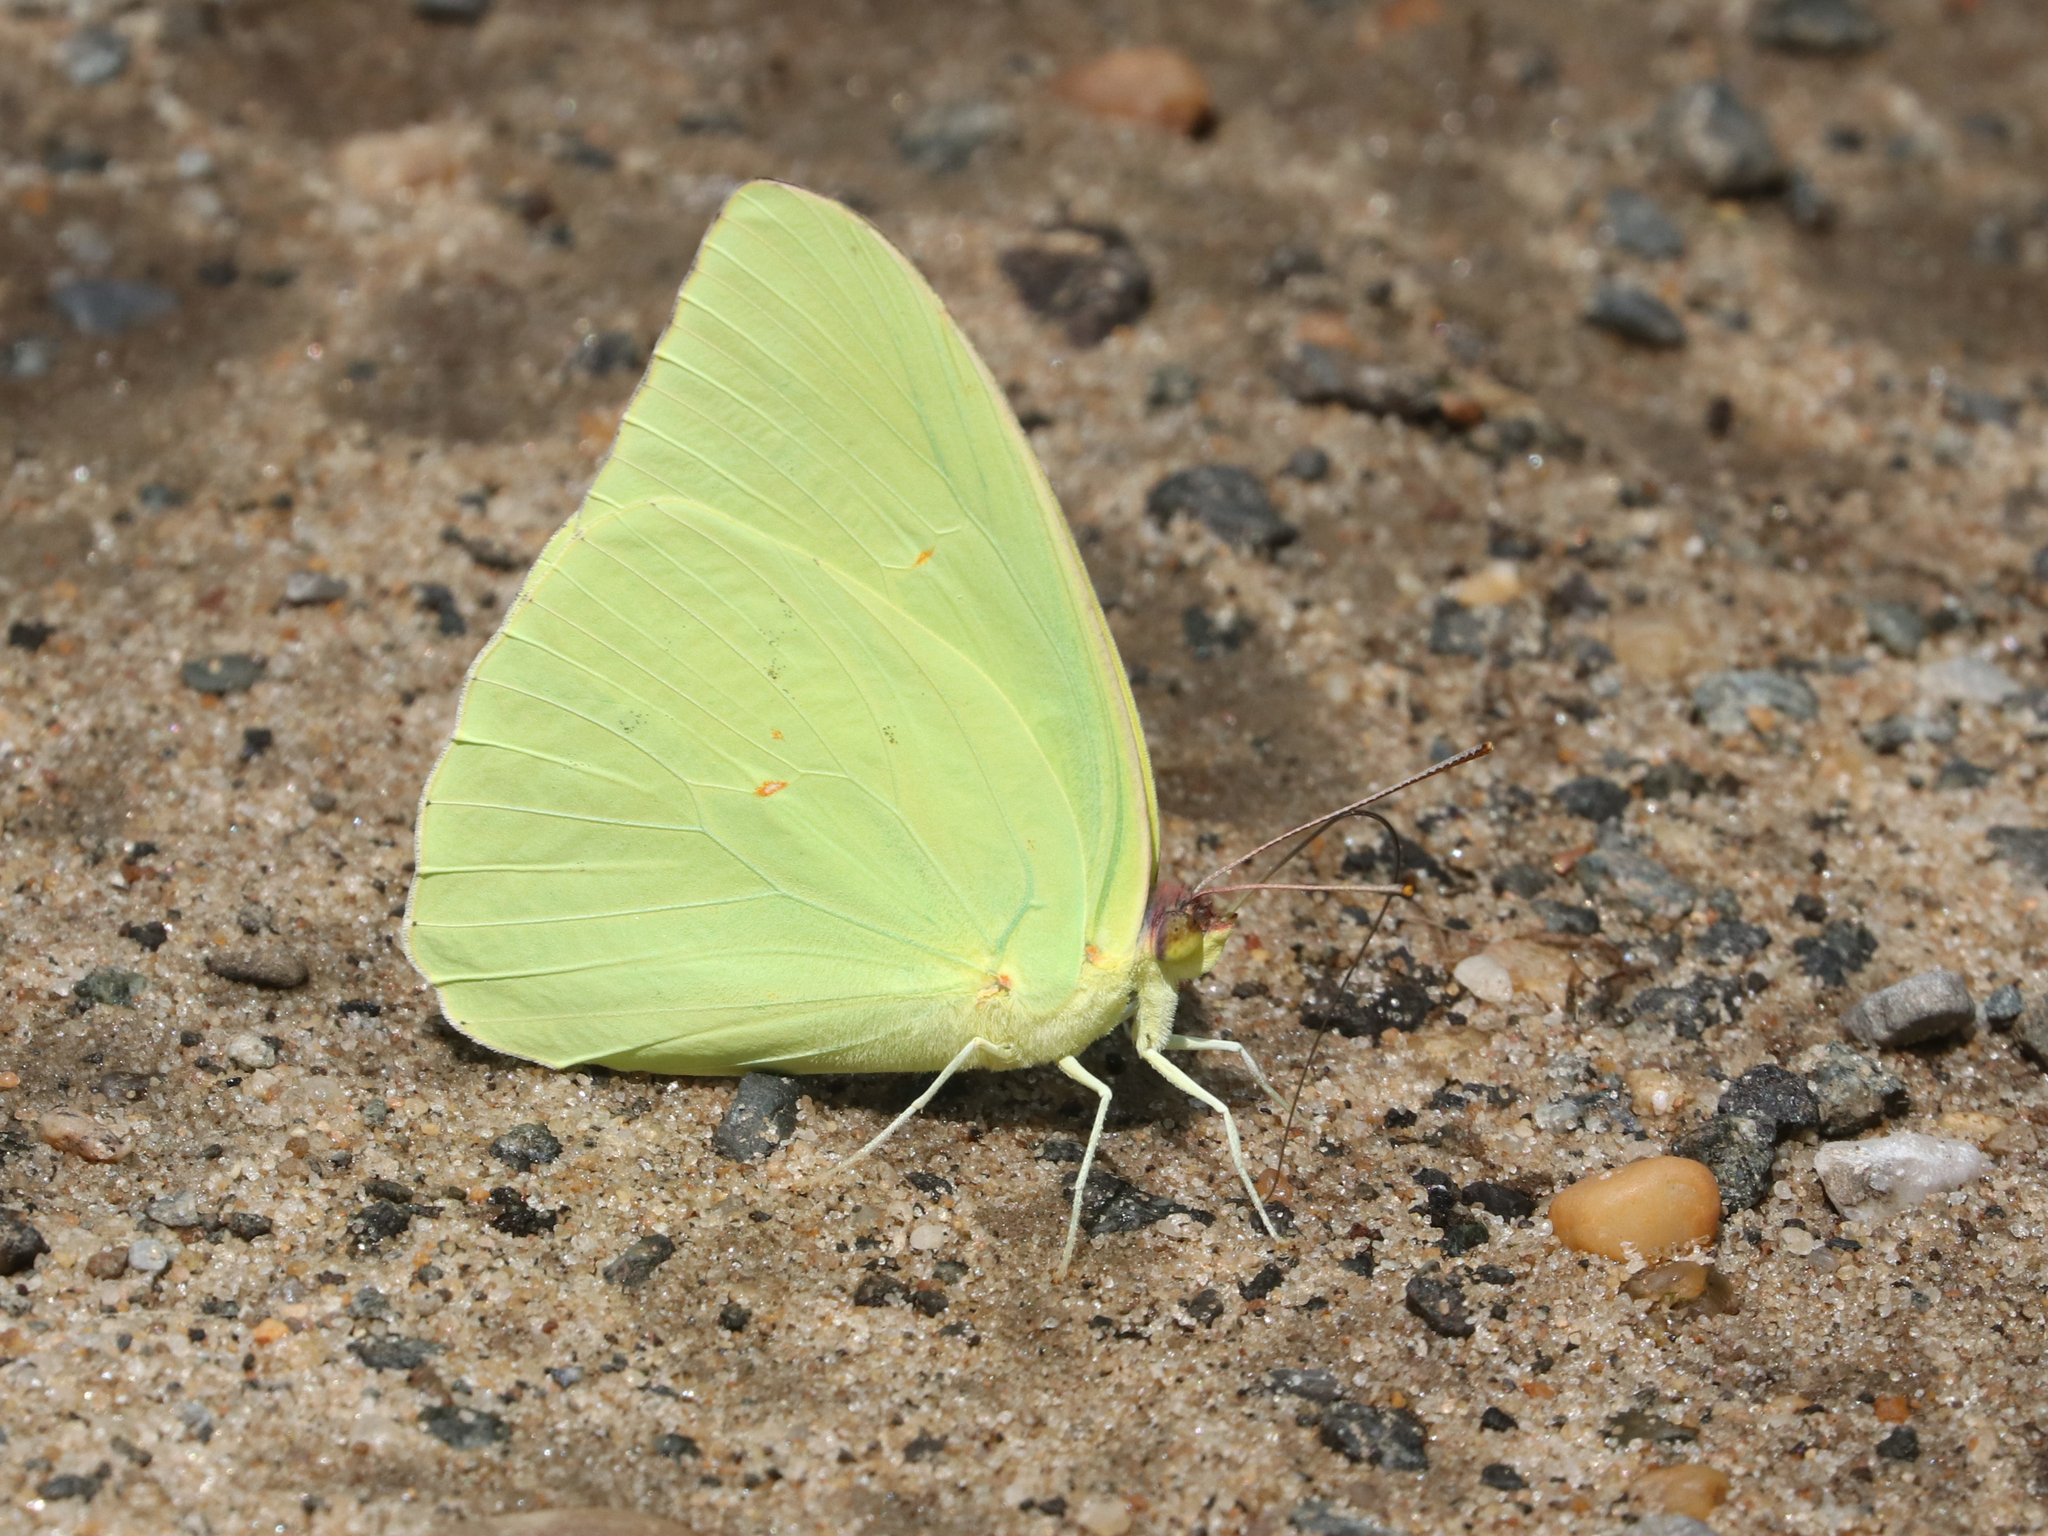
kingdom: Animalia
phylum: Arthropoda
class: Insecta
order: Lepidoptera
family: Pieridae
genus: Phoebis
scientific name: Phoebis sennae
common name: Cloudless sulphur
